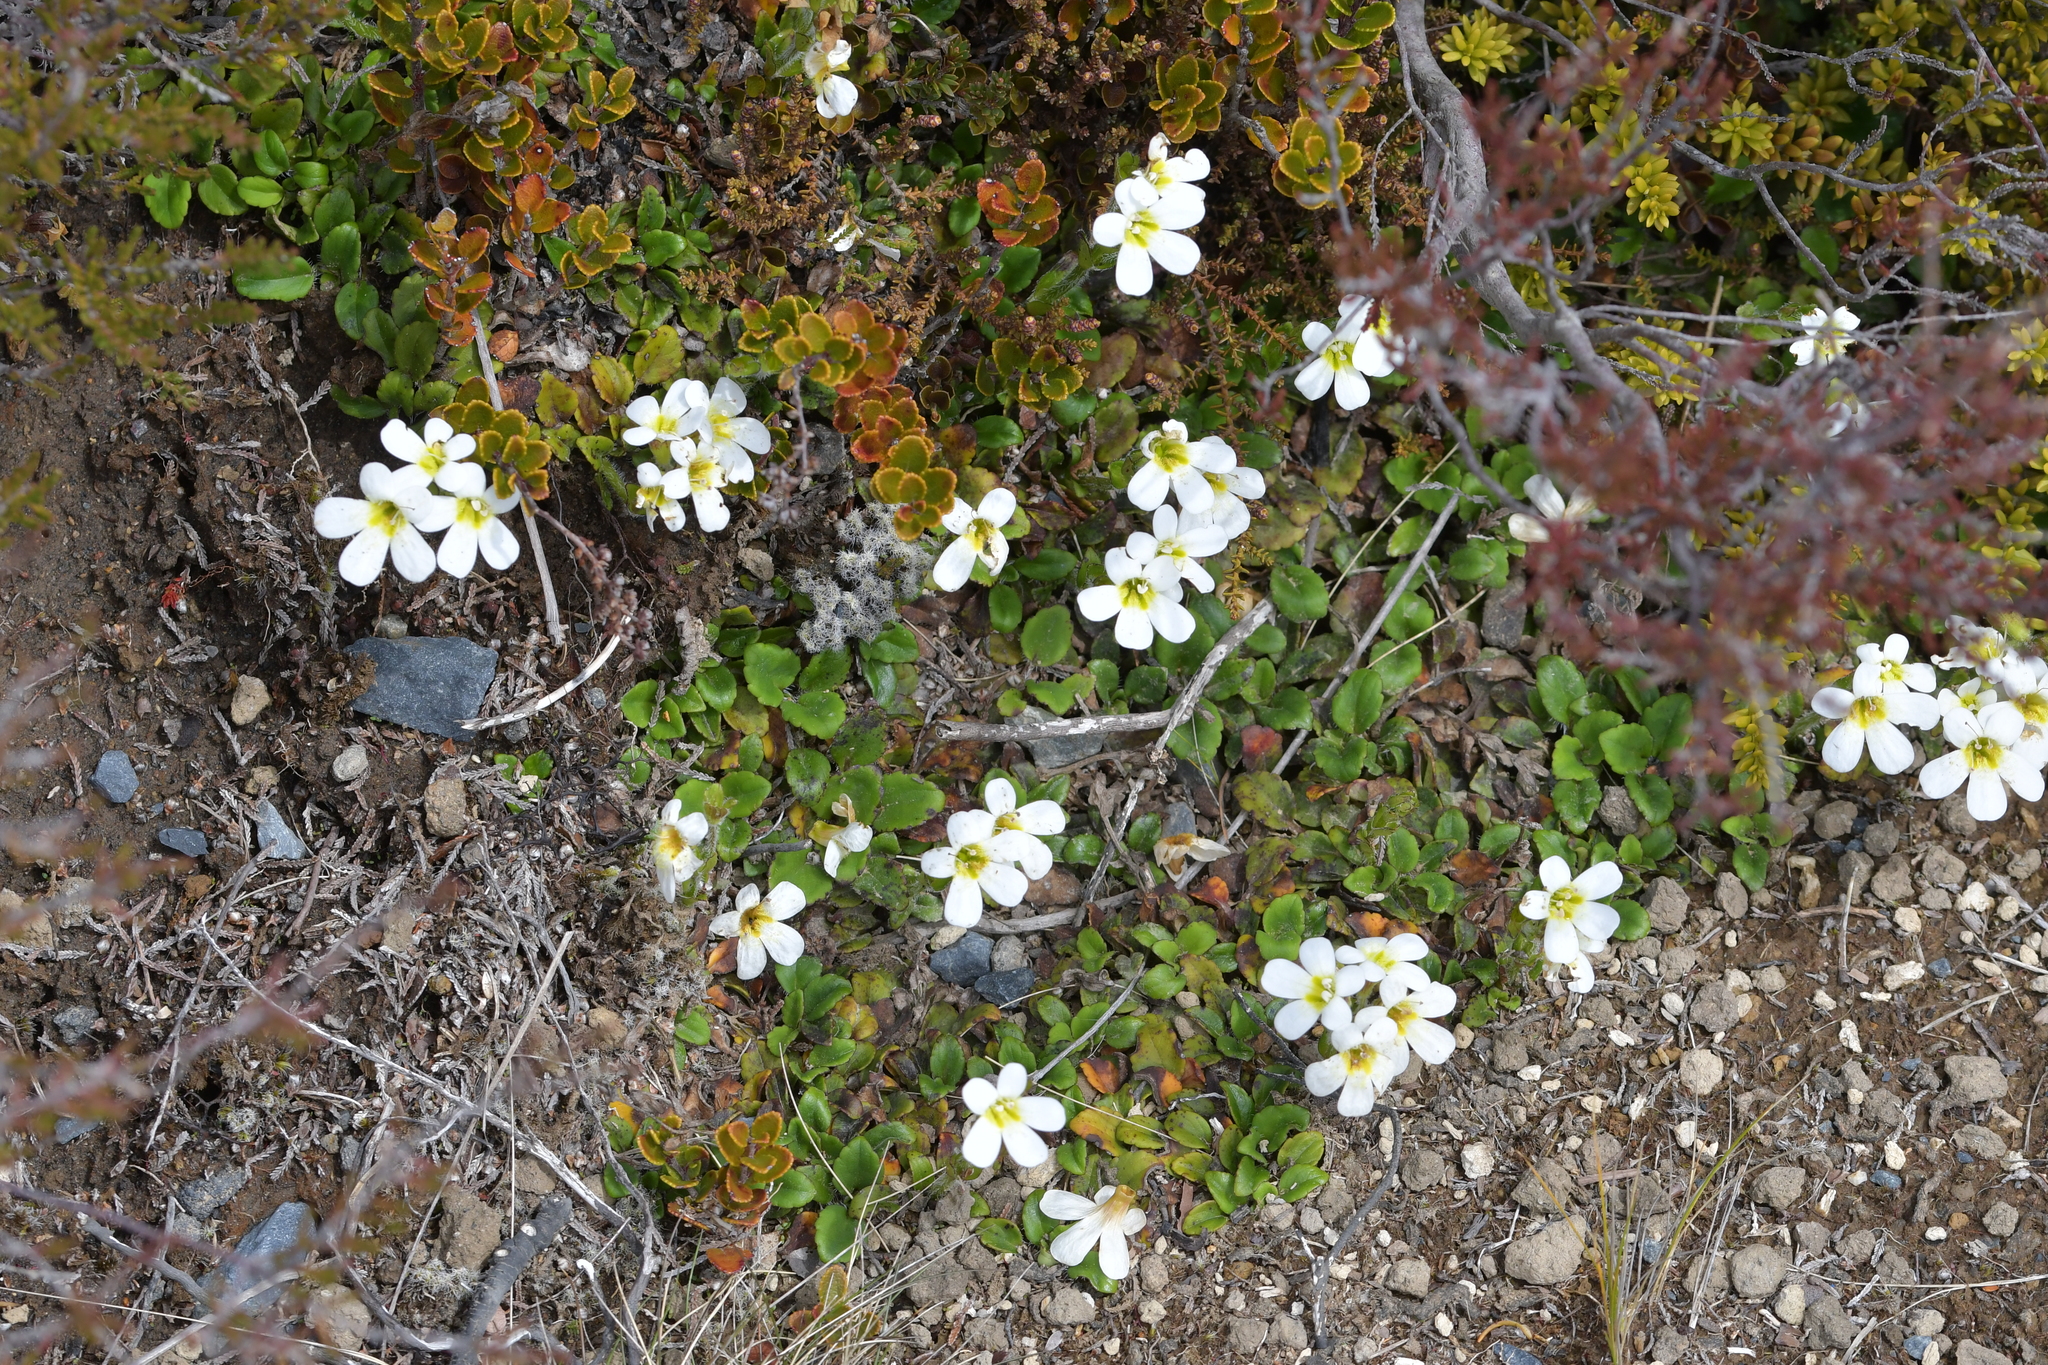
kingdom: Plantae
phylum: Tracheophyta
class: Magnoliopsida
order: Lamiales
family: Plantaginaceae
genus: Ourisia
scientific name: Ourisia vulcanica
